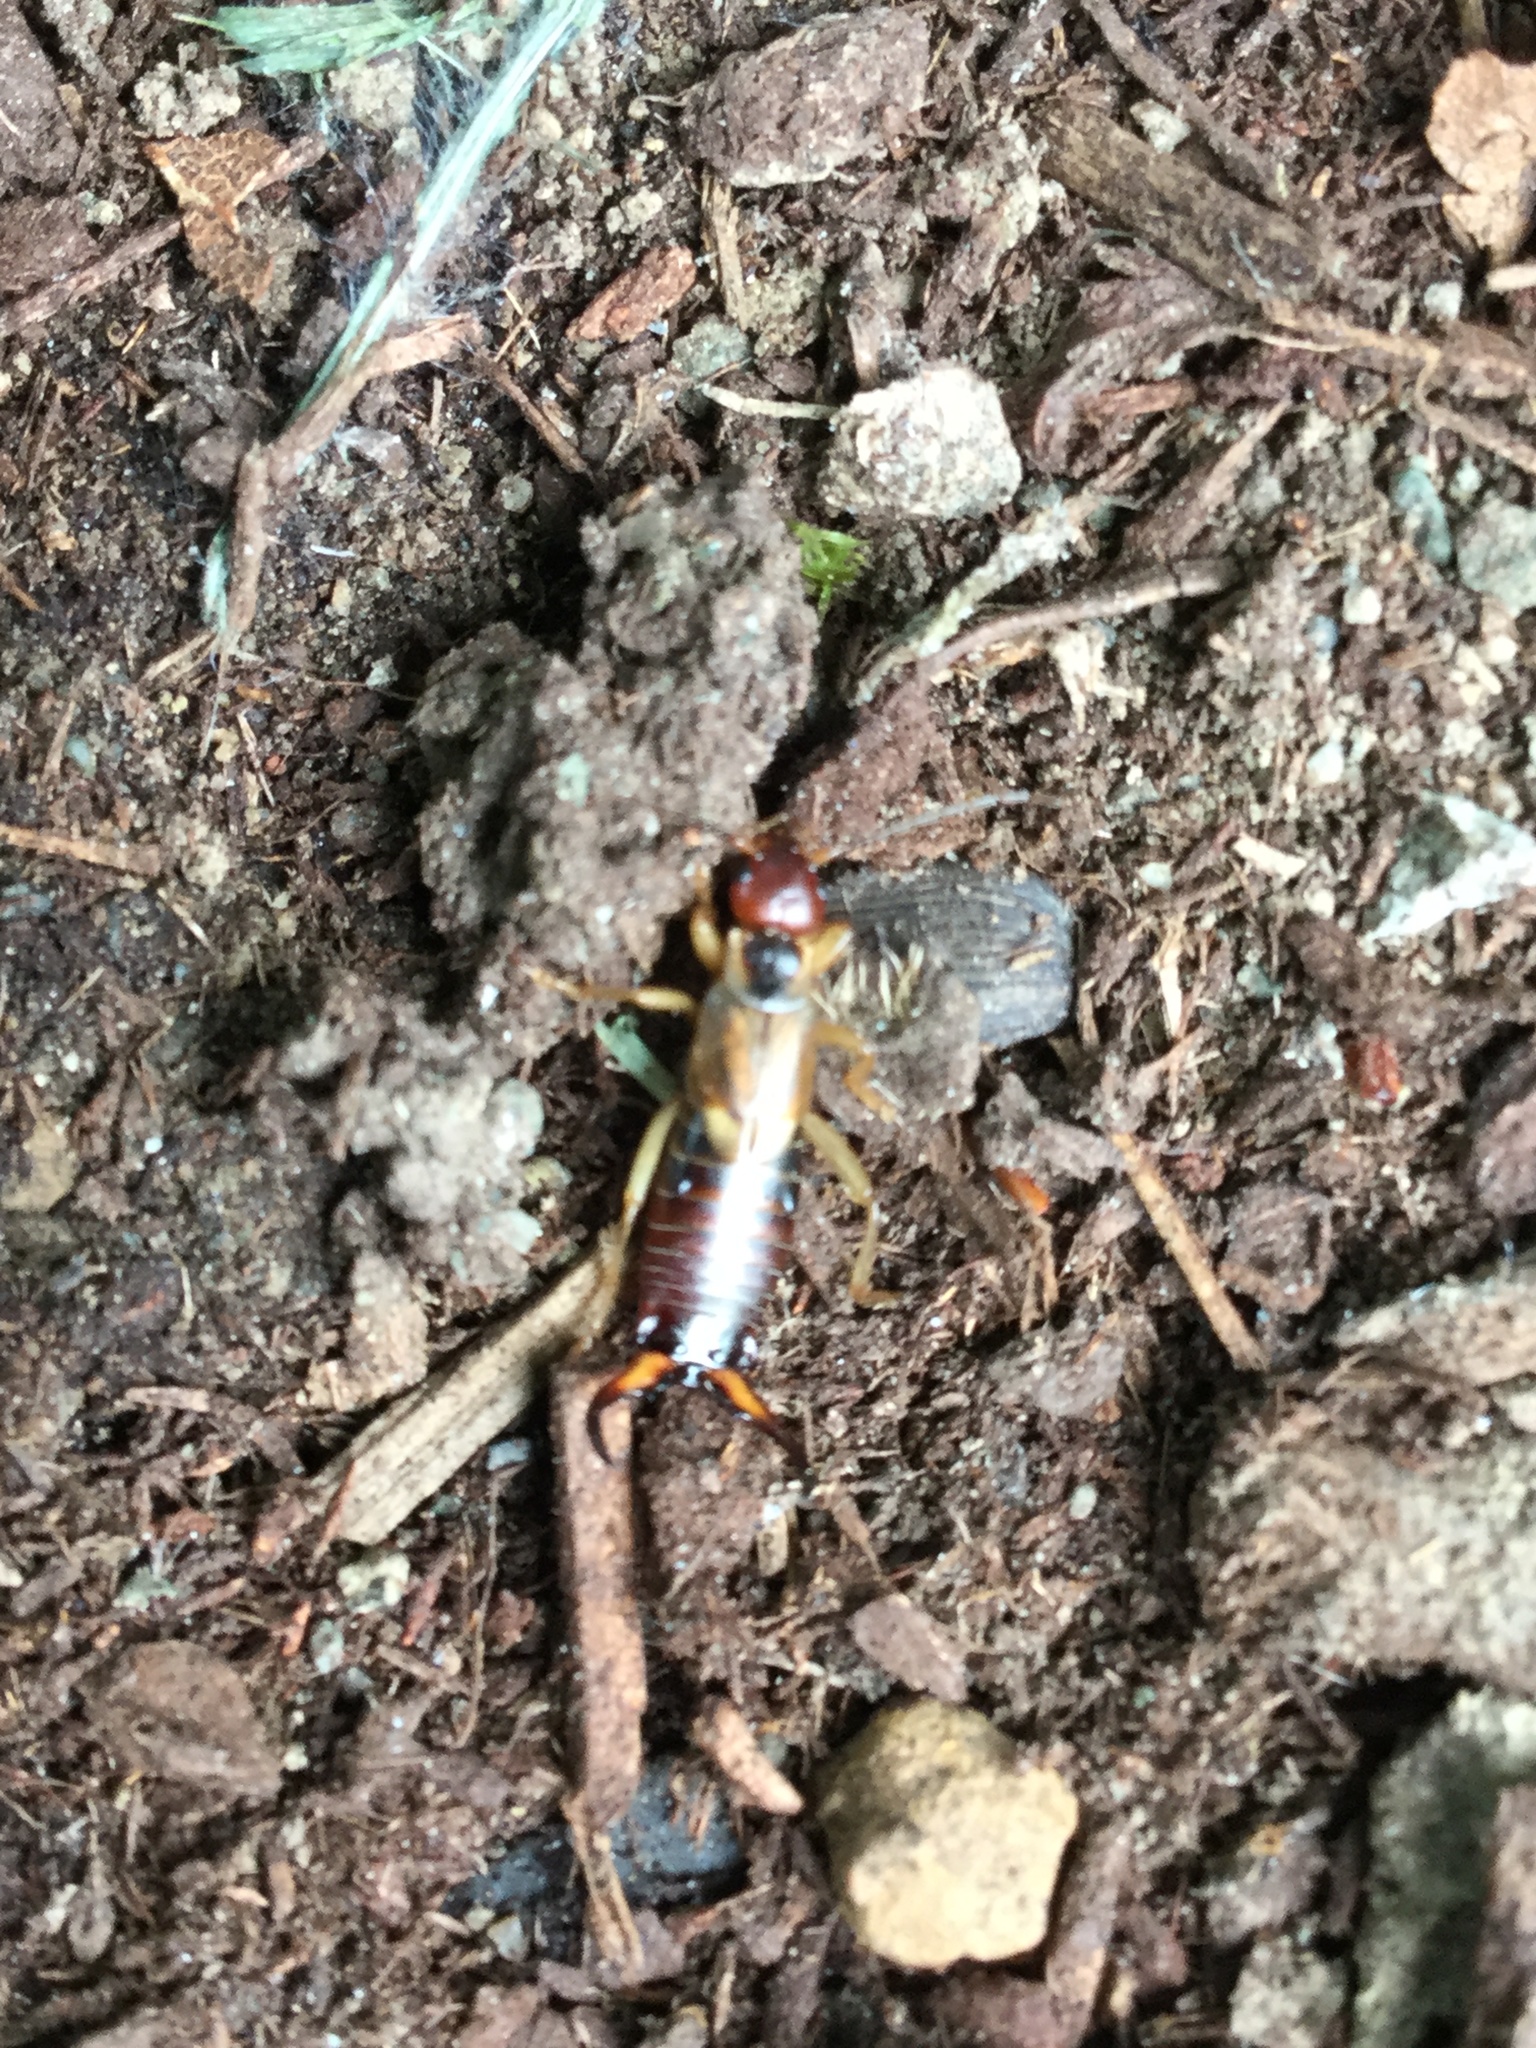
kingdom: Animalia
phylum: Arthropoda
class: Insecta
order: Dermaptera
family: Forficulidae
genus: Forficula
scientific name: Forficula dentata
